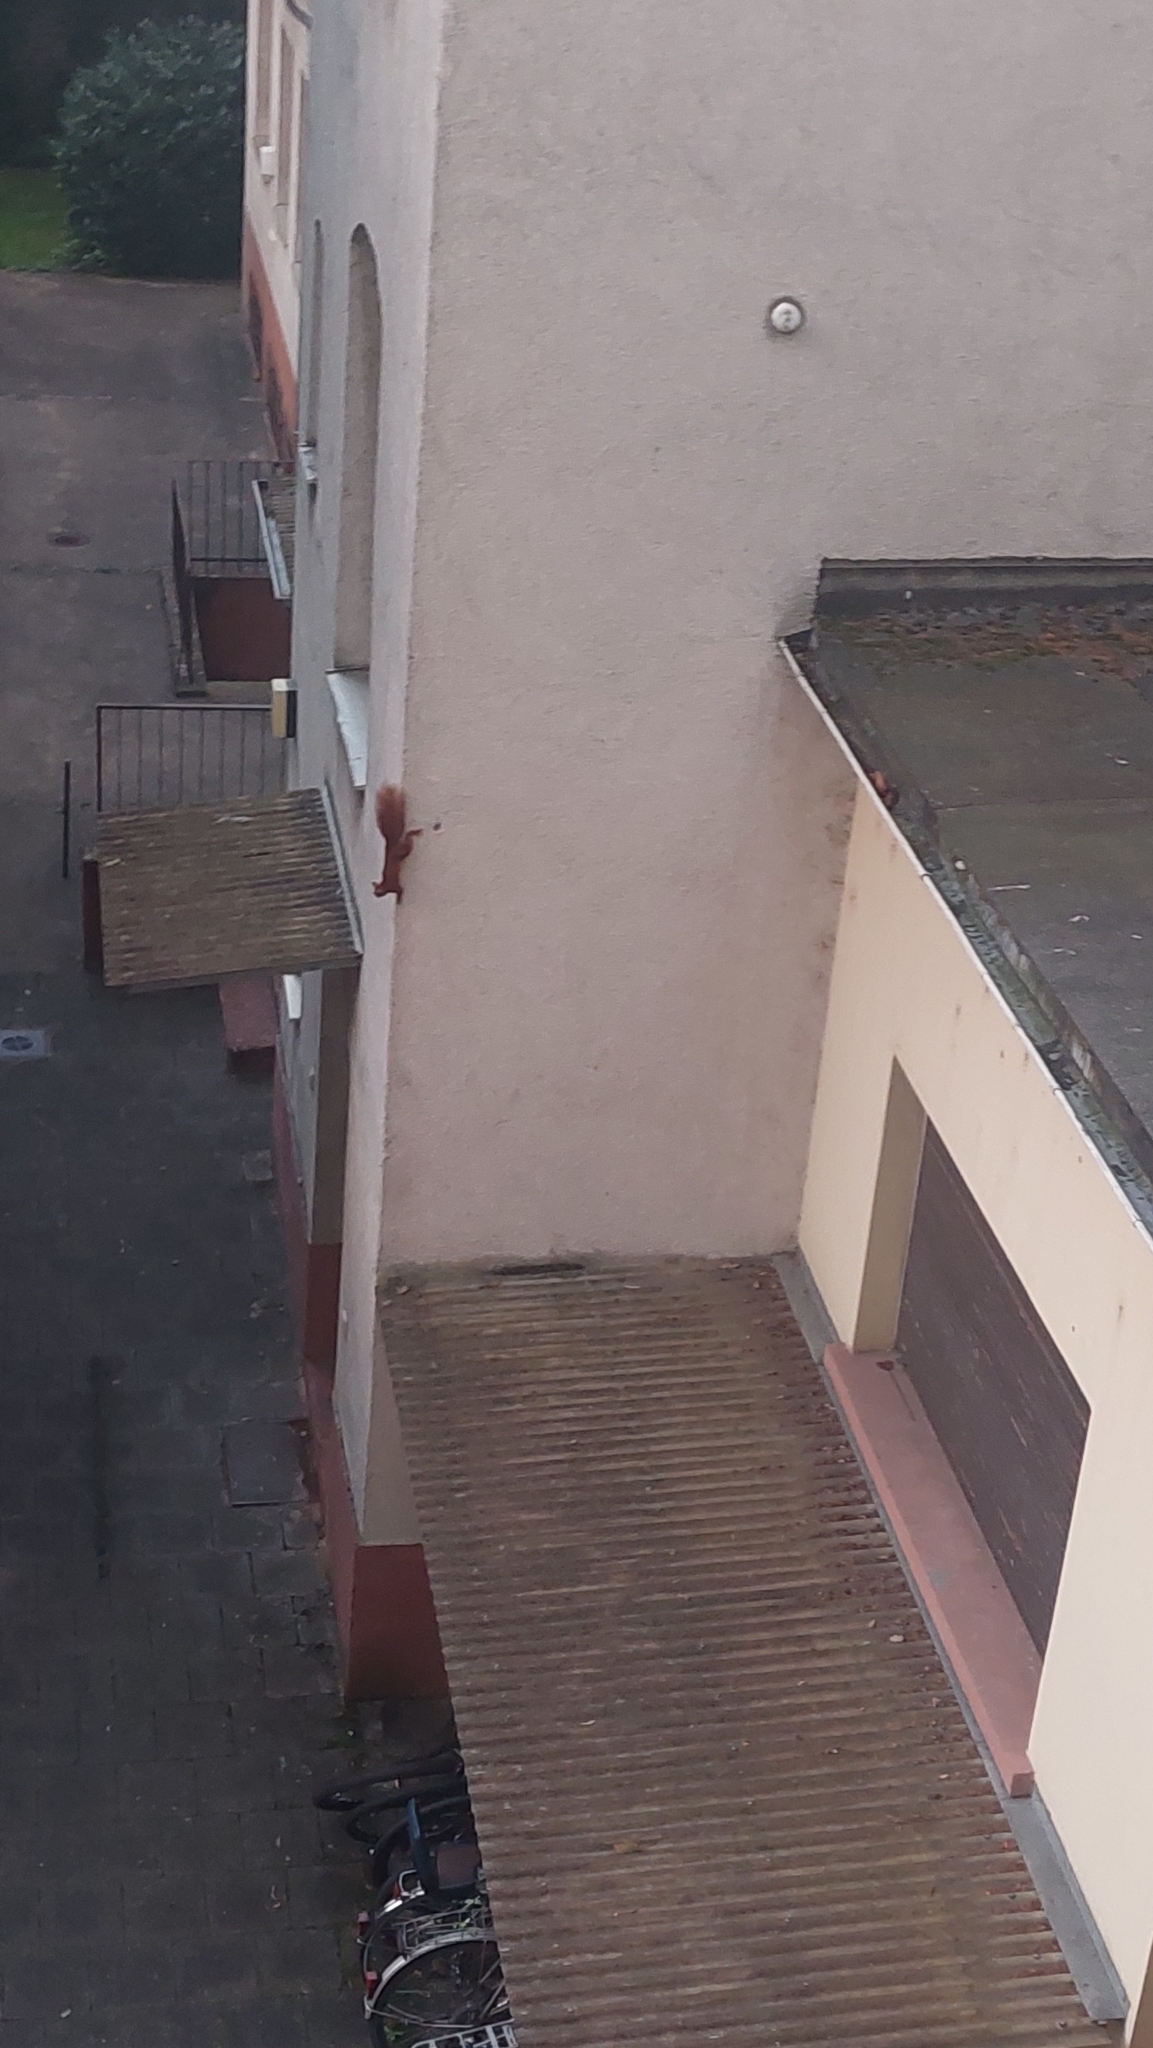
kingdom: Animalia
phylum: Chordata
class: Mammalia
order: Rodentia
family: Sciuridae
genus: Sciurus
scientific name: Sciurus vulgaris
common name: Eurasian red squirrel
